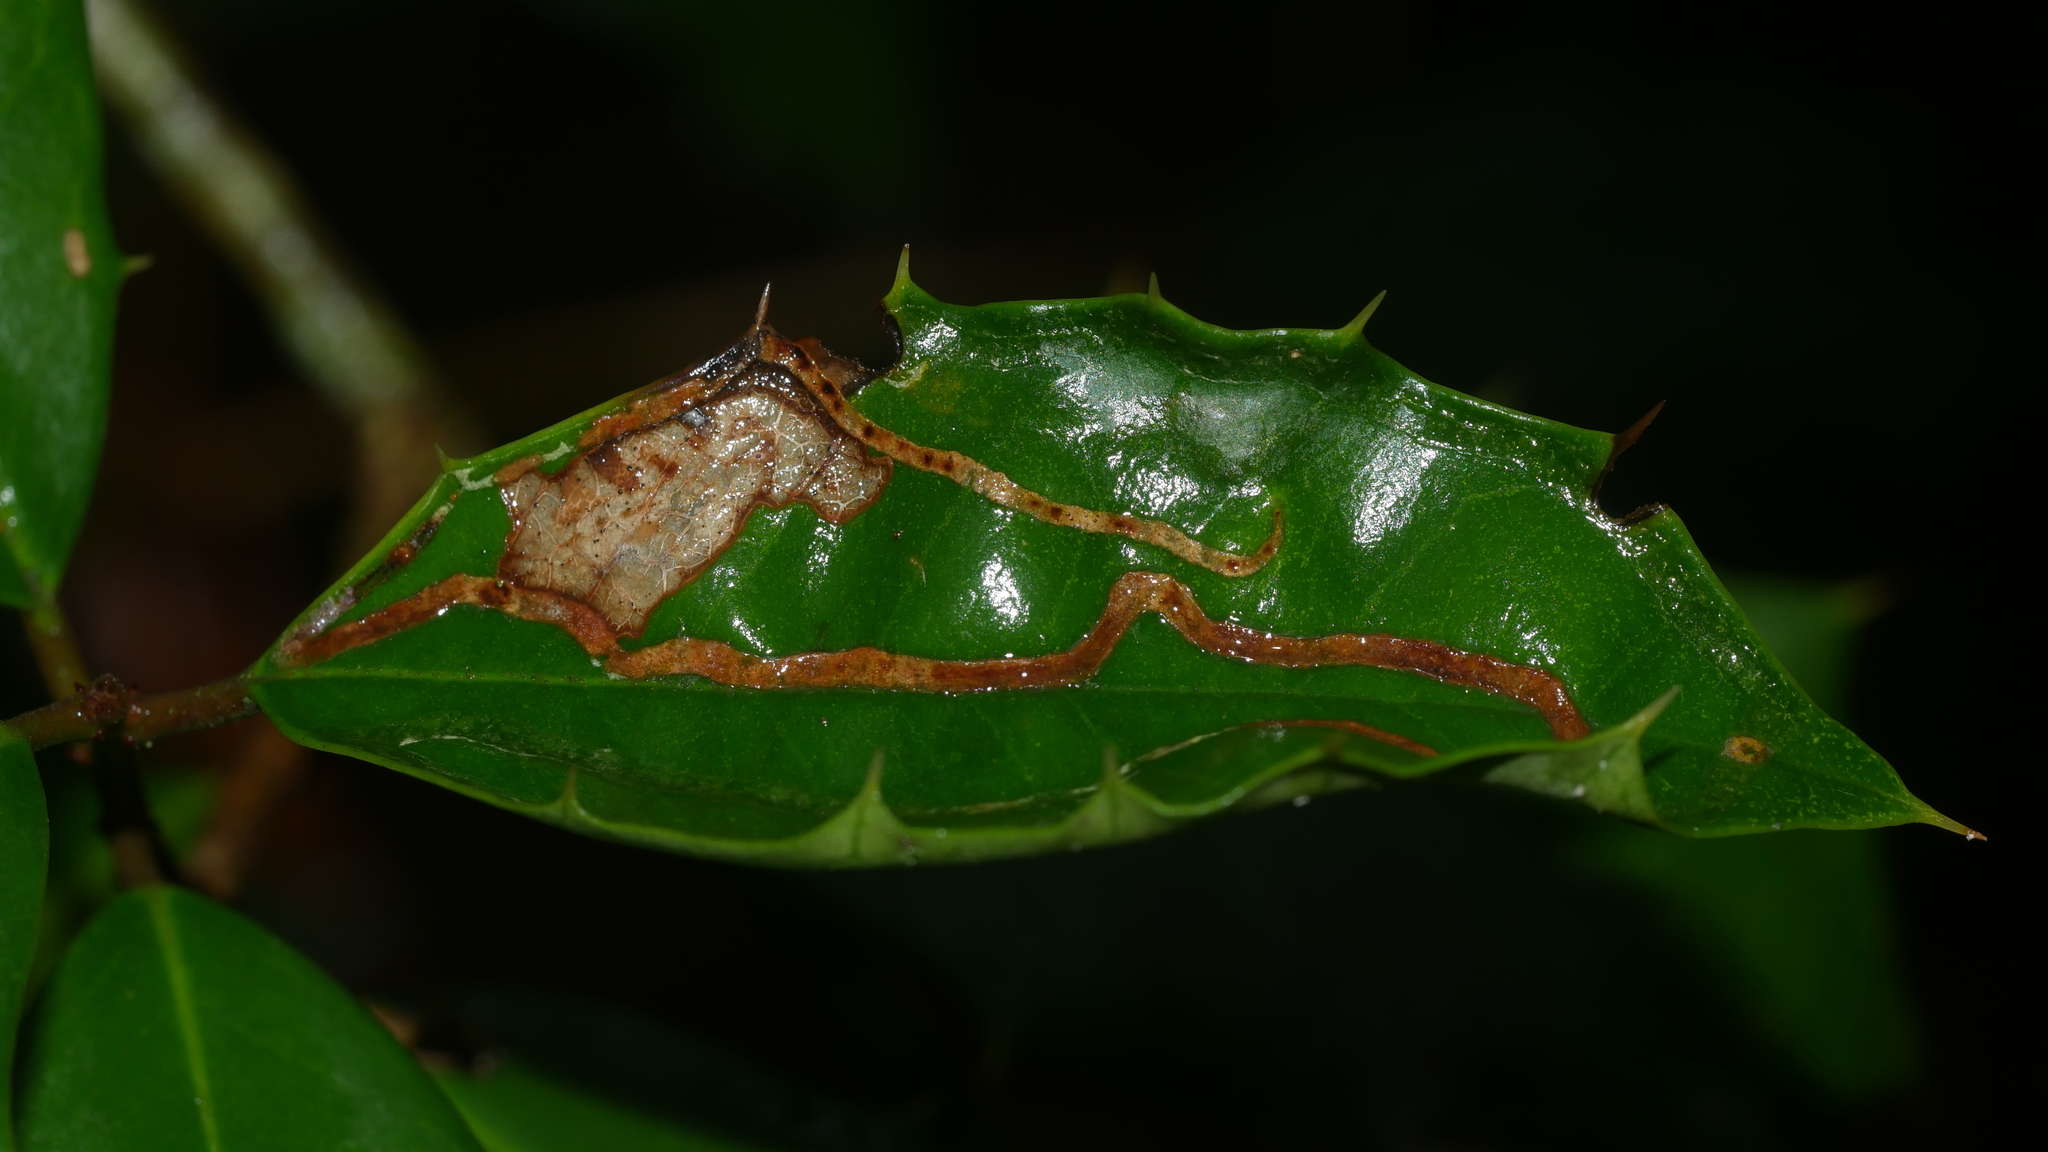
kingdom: Animalia
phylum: Arthropoda
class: Insecta
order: Diptera
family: Agromyzidae
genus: Phytomyza
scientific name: Phytomyza opacae
